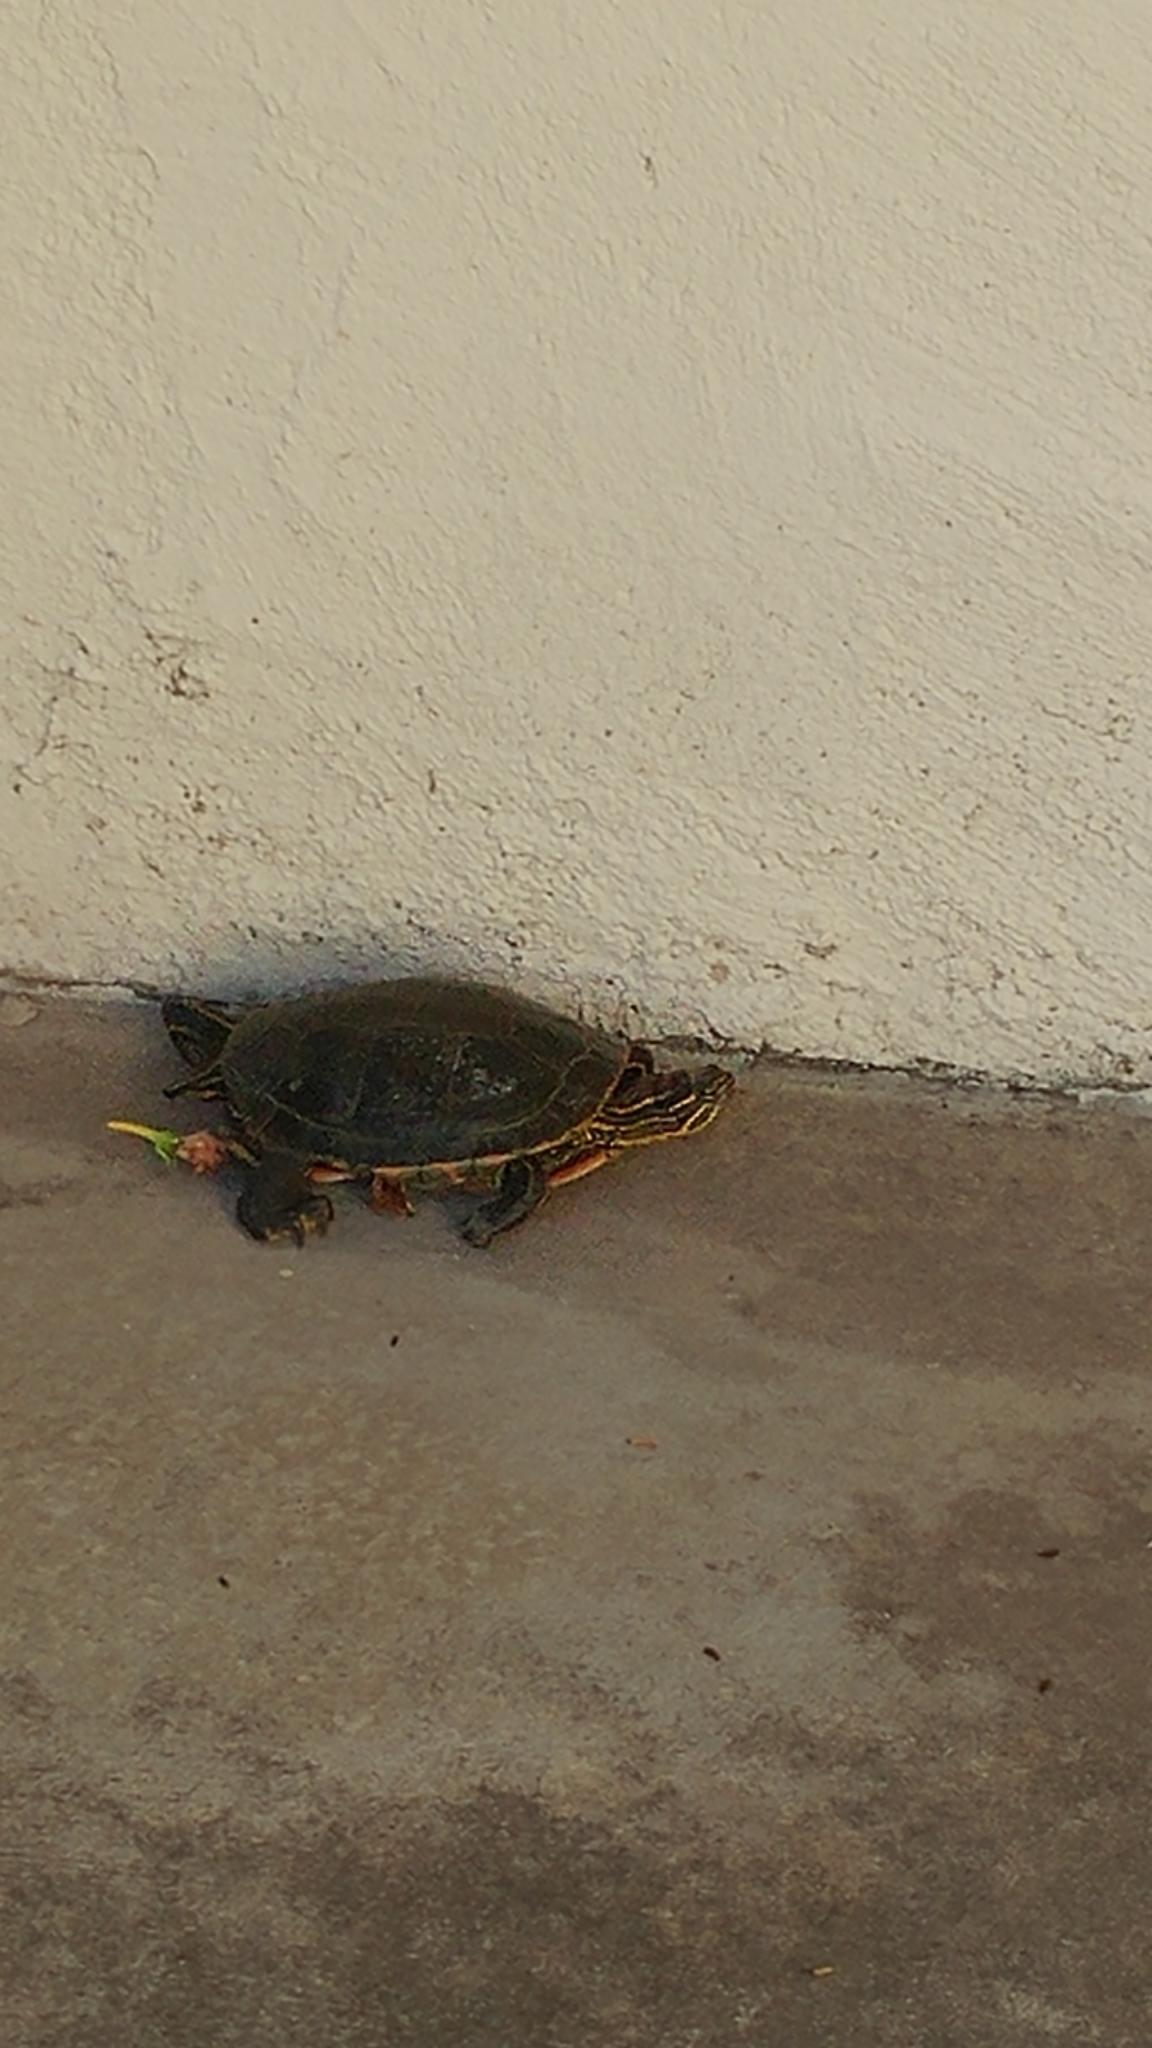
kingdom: Animalia
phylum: Chordata
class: Testudines
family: Emydidae
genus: Chrysemys
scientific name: Chrysemys picta
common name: Painted turtle
